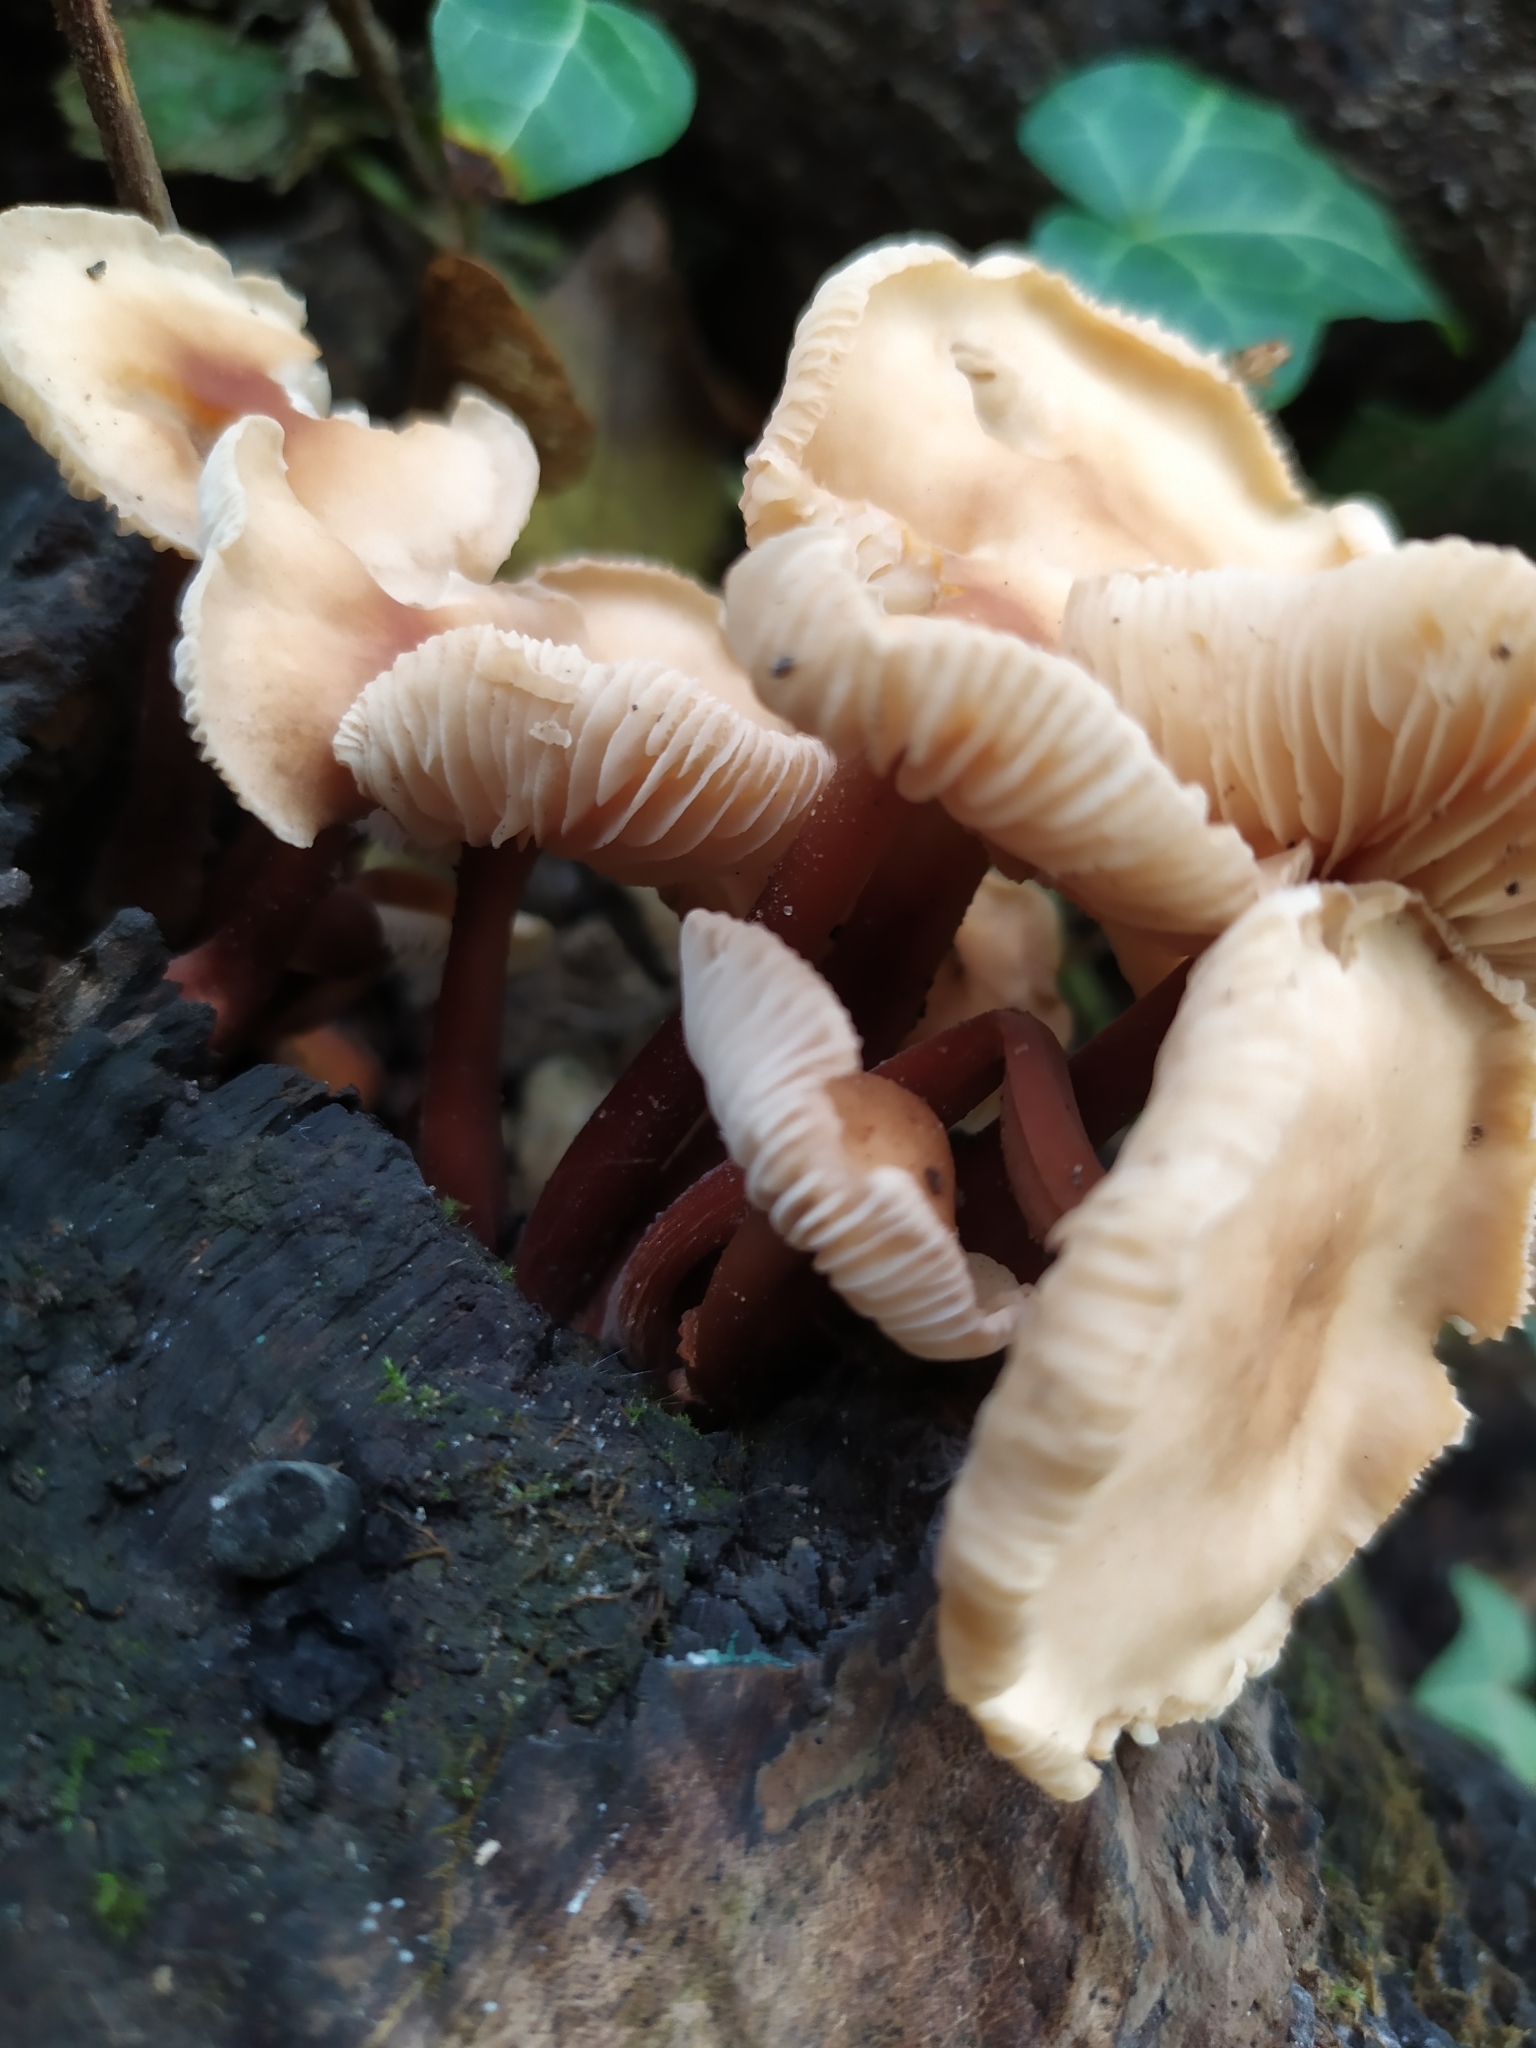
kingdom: Fungi
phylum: Basidiomycota
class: Agaricomycetes
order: Agaricales
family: Omphalotaceae
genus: Gymnopus
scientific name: Gymnopus erythropus
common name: Redleg toughshank
